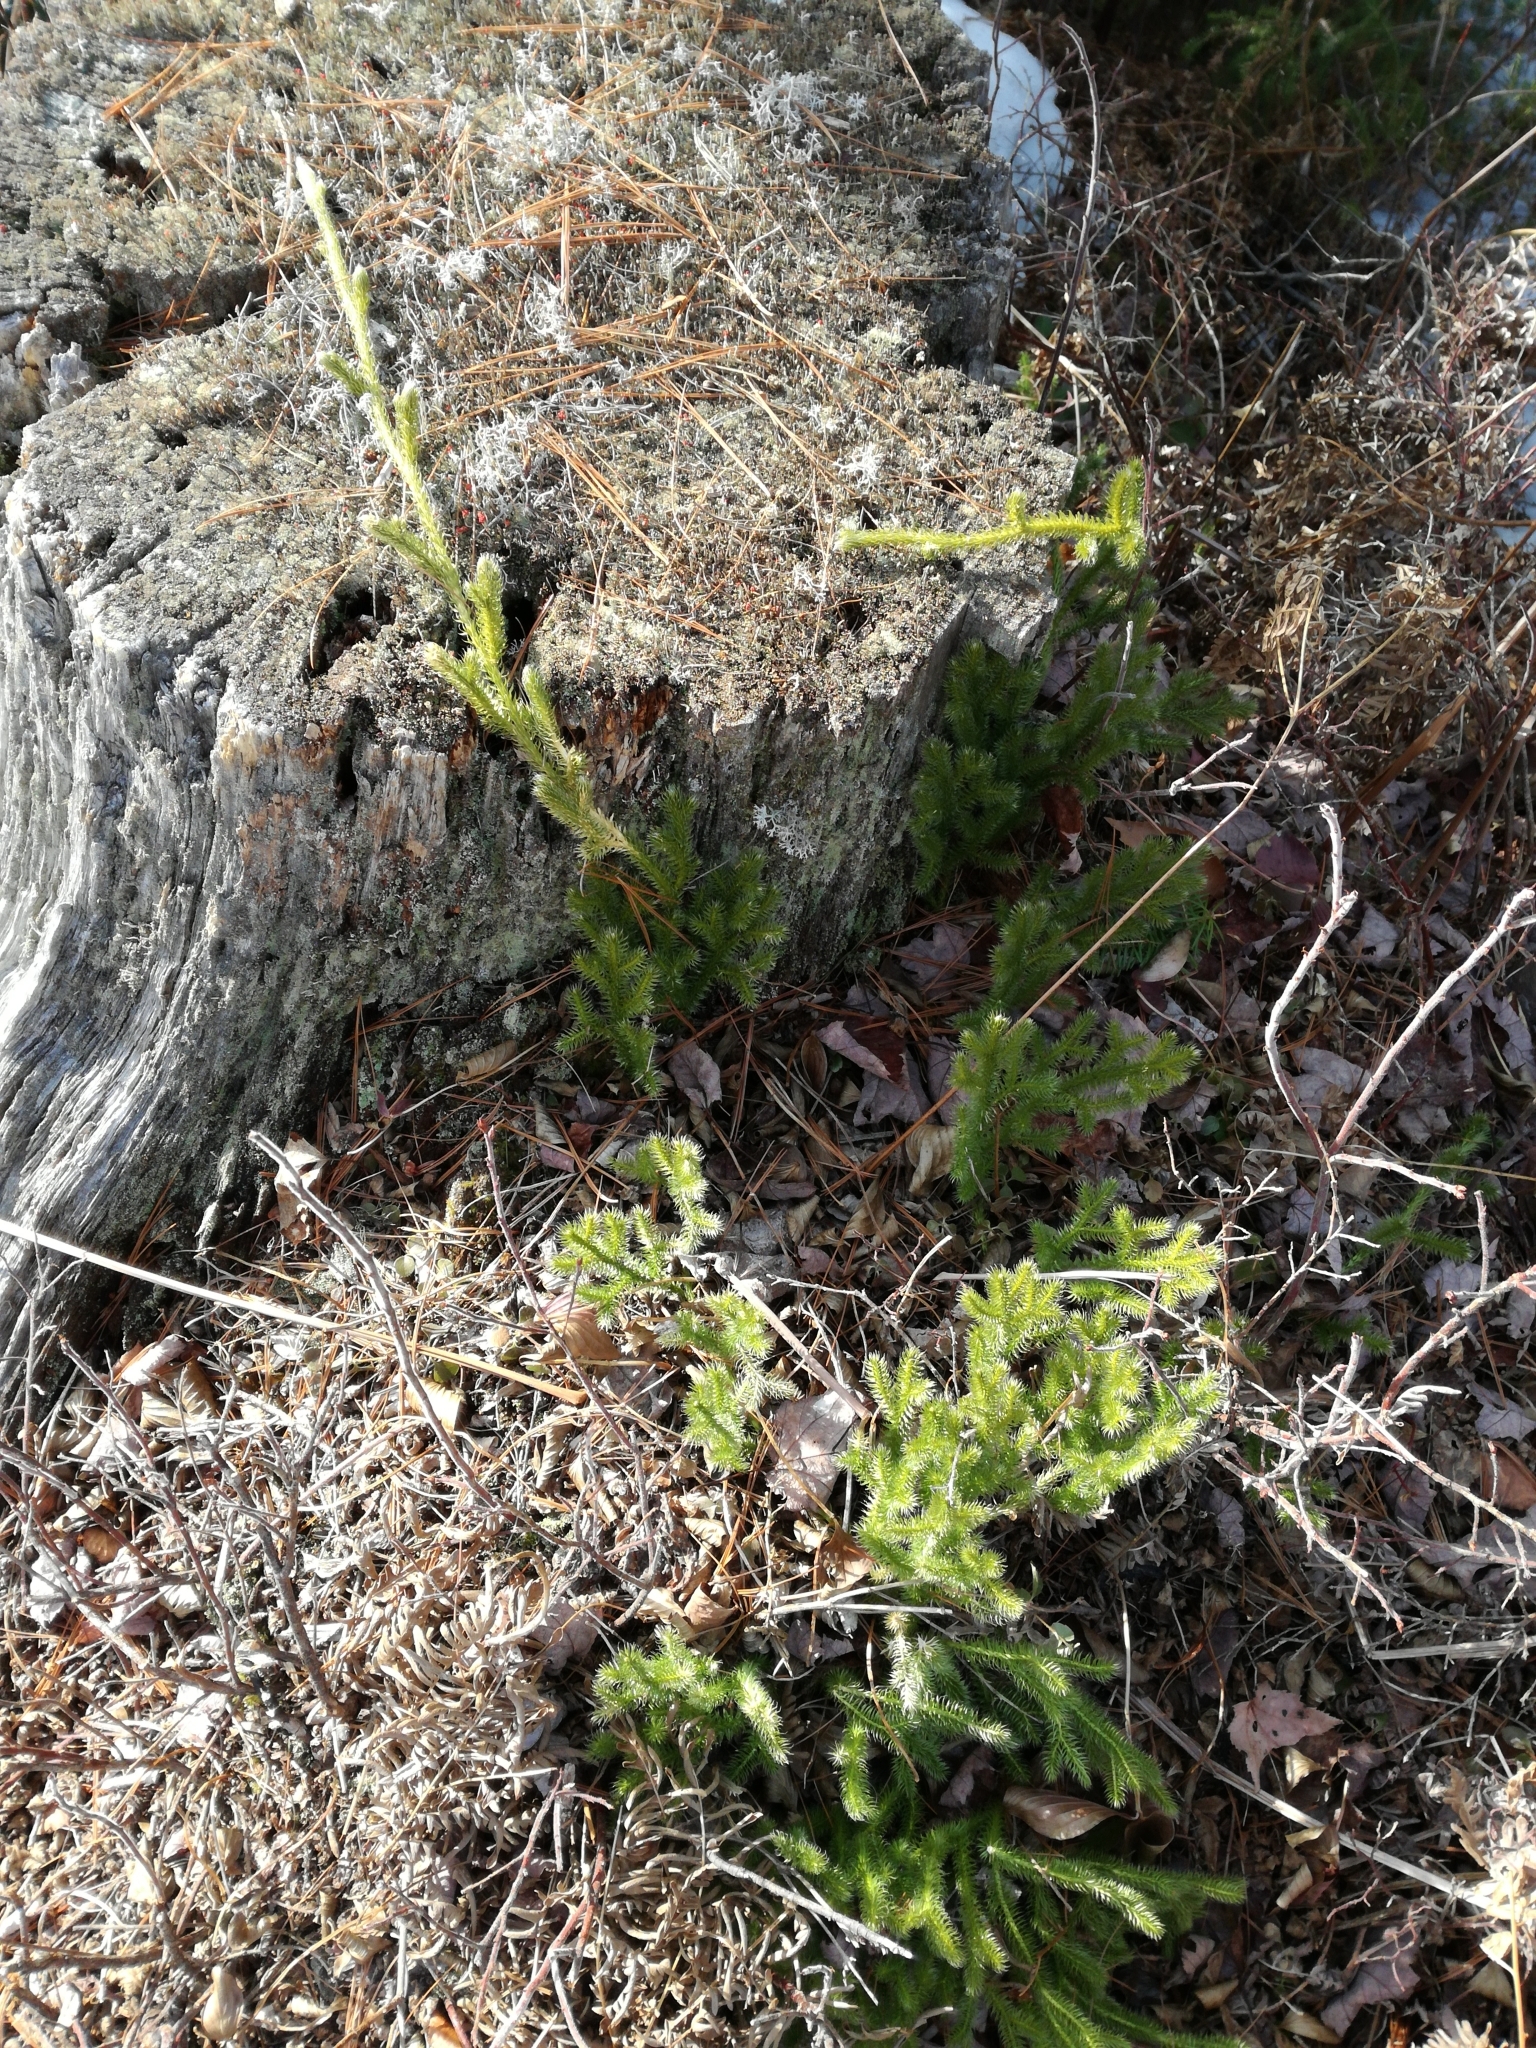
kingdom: Plantae
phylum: Tracheophyta
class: Lycopodiopsida
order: Lycopodiales
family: Lycopodiaceae
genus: Lycopodium
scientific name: Lycopodium clavatum
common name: Stag's-horn clubmoss
